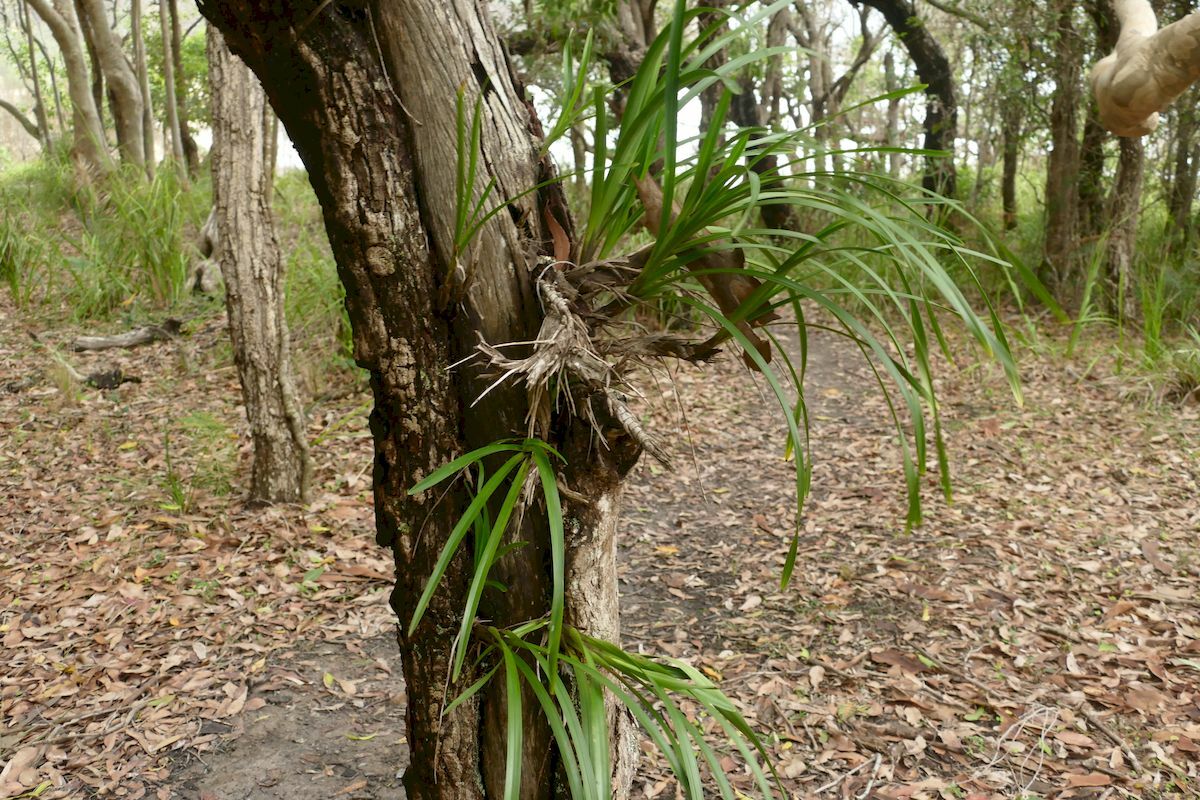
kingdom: Plantae
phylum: Tracheophyta
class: Liliopsida
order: Asparagales
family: Orchidaceae
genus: Cymbidium
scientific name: Cymbidium suave
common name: Snake orchid
